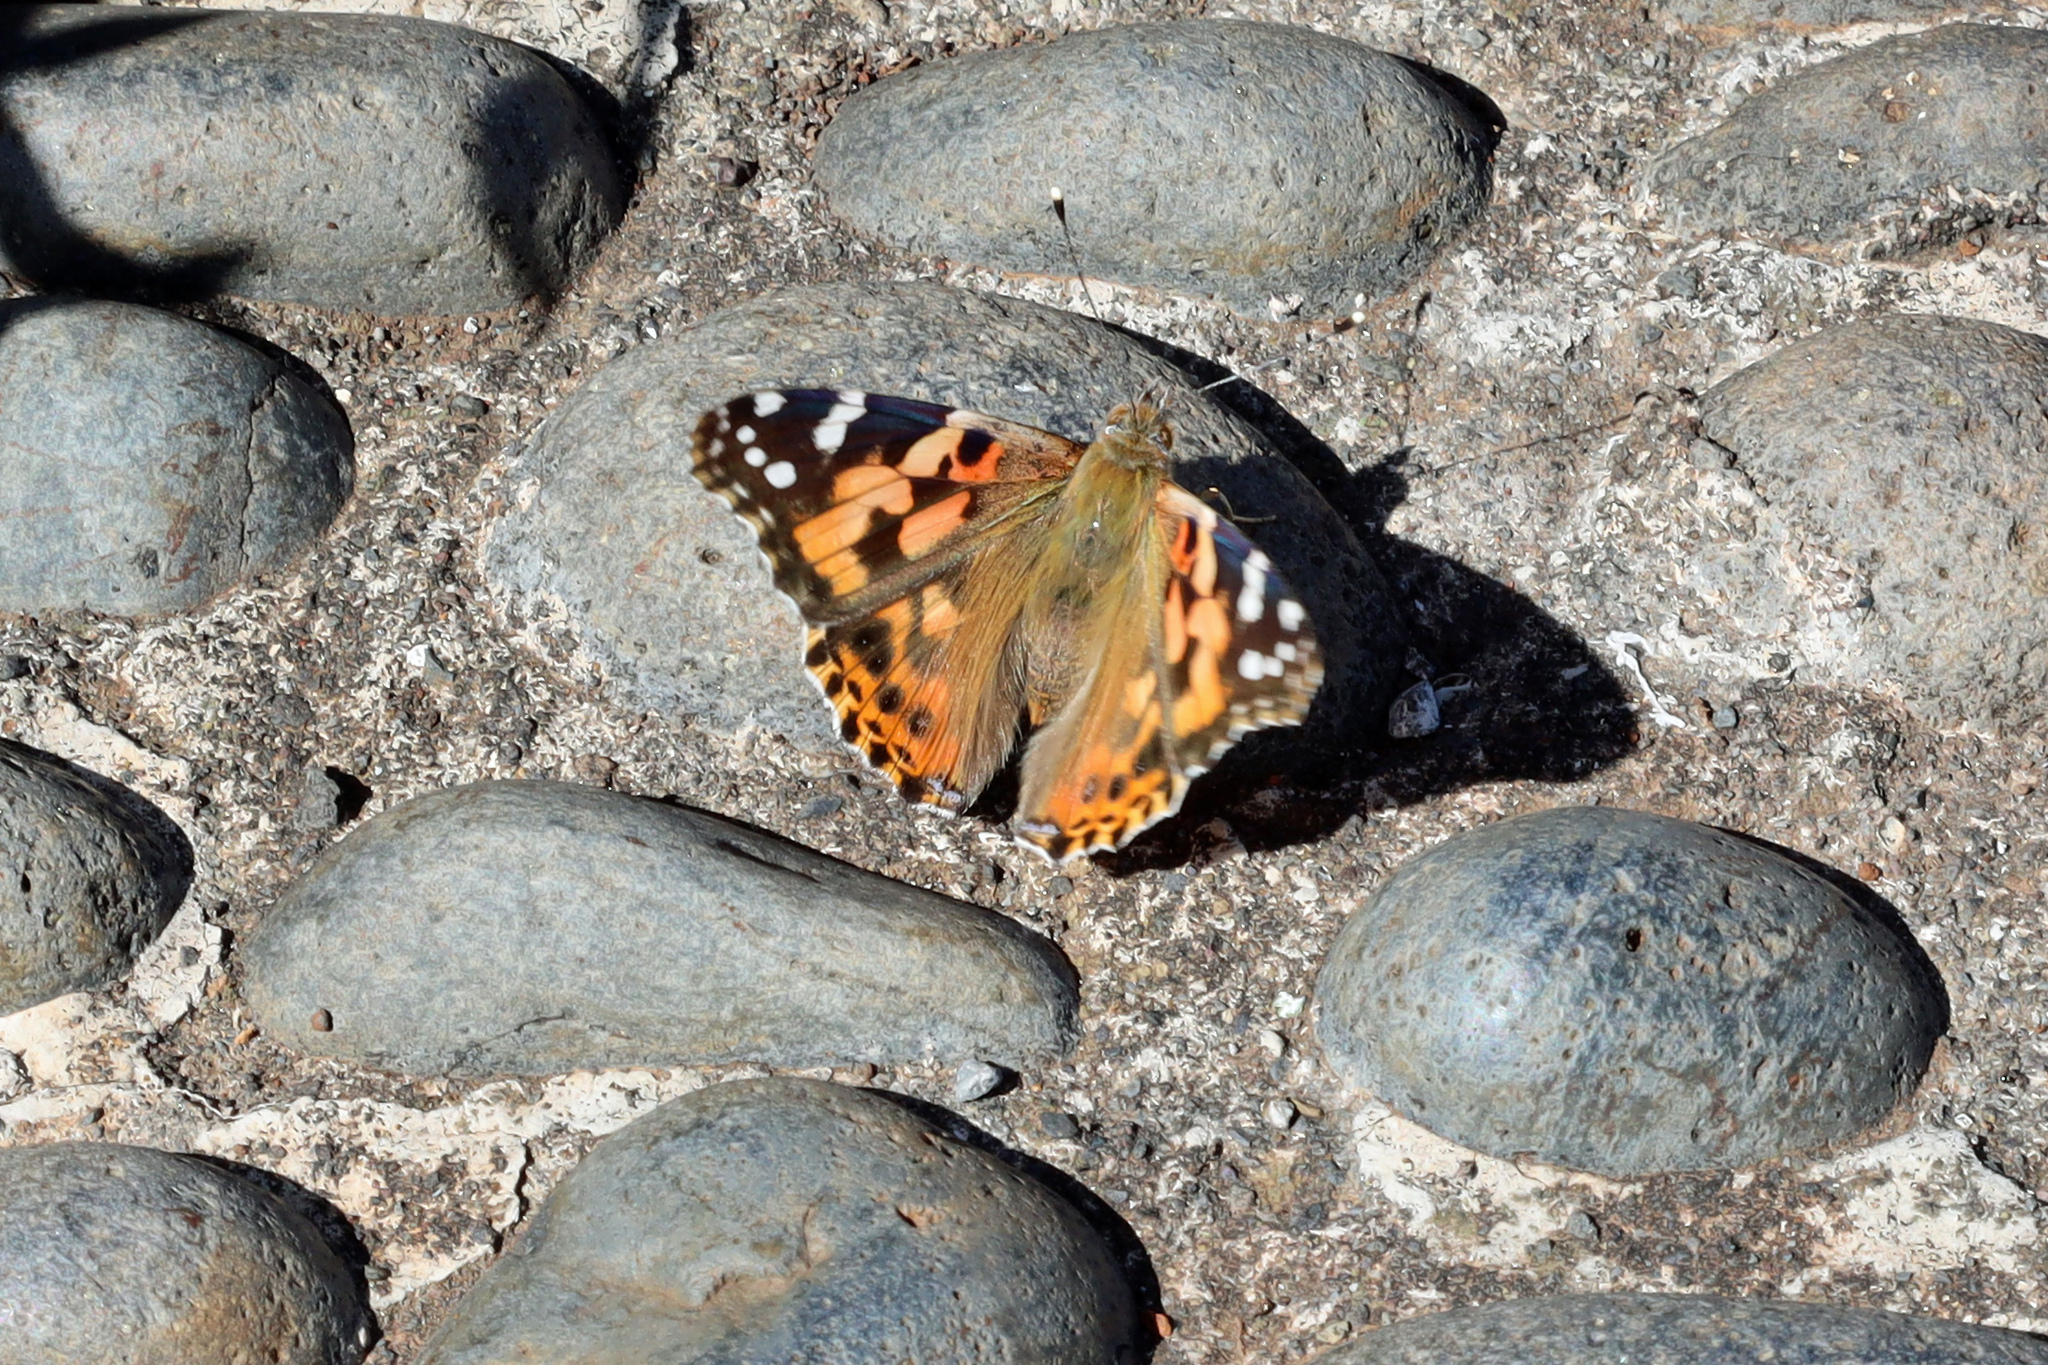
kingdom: Animalia
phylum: Arthropoda
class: Insecta
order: Lepidoptera
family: Nymphalidae
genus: Vanessa
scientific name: Vanessa cardui
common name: Painted lady
